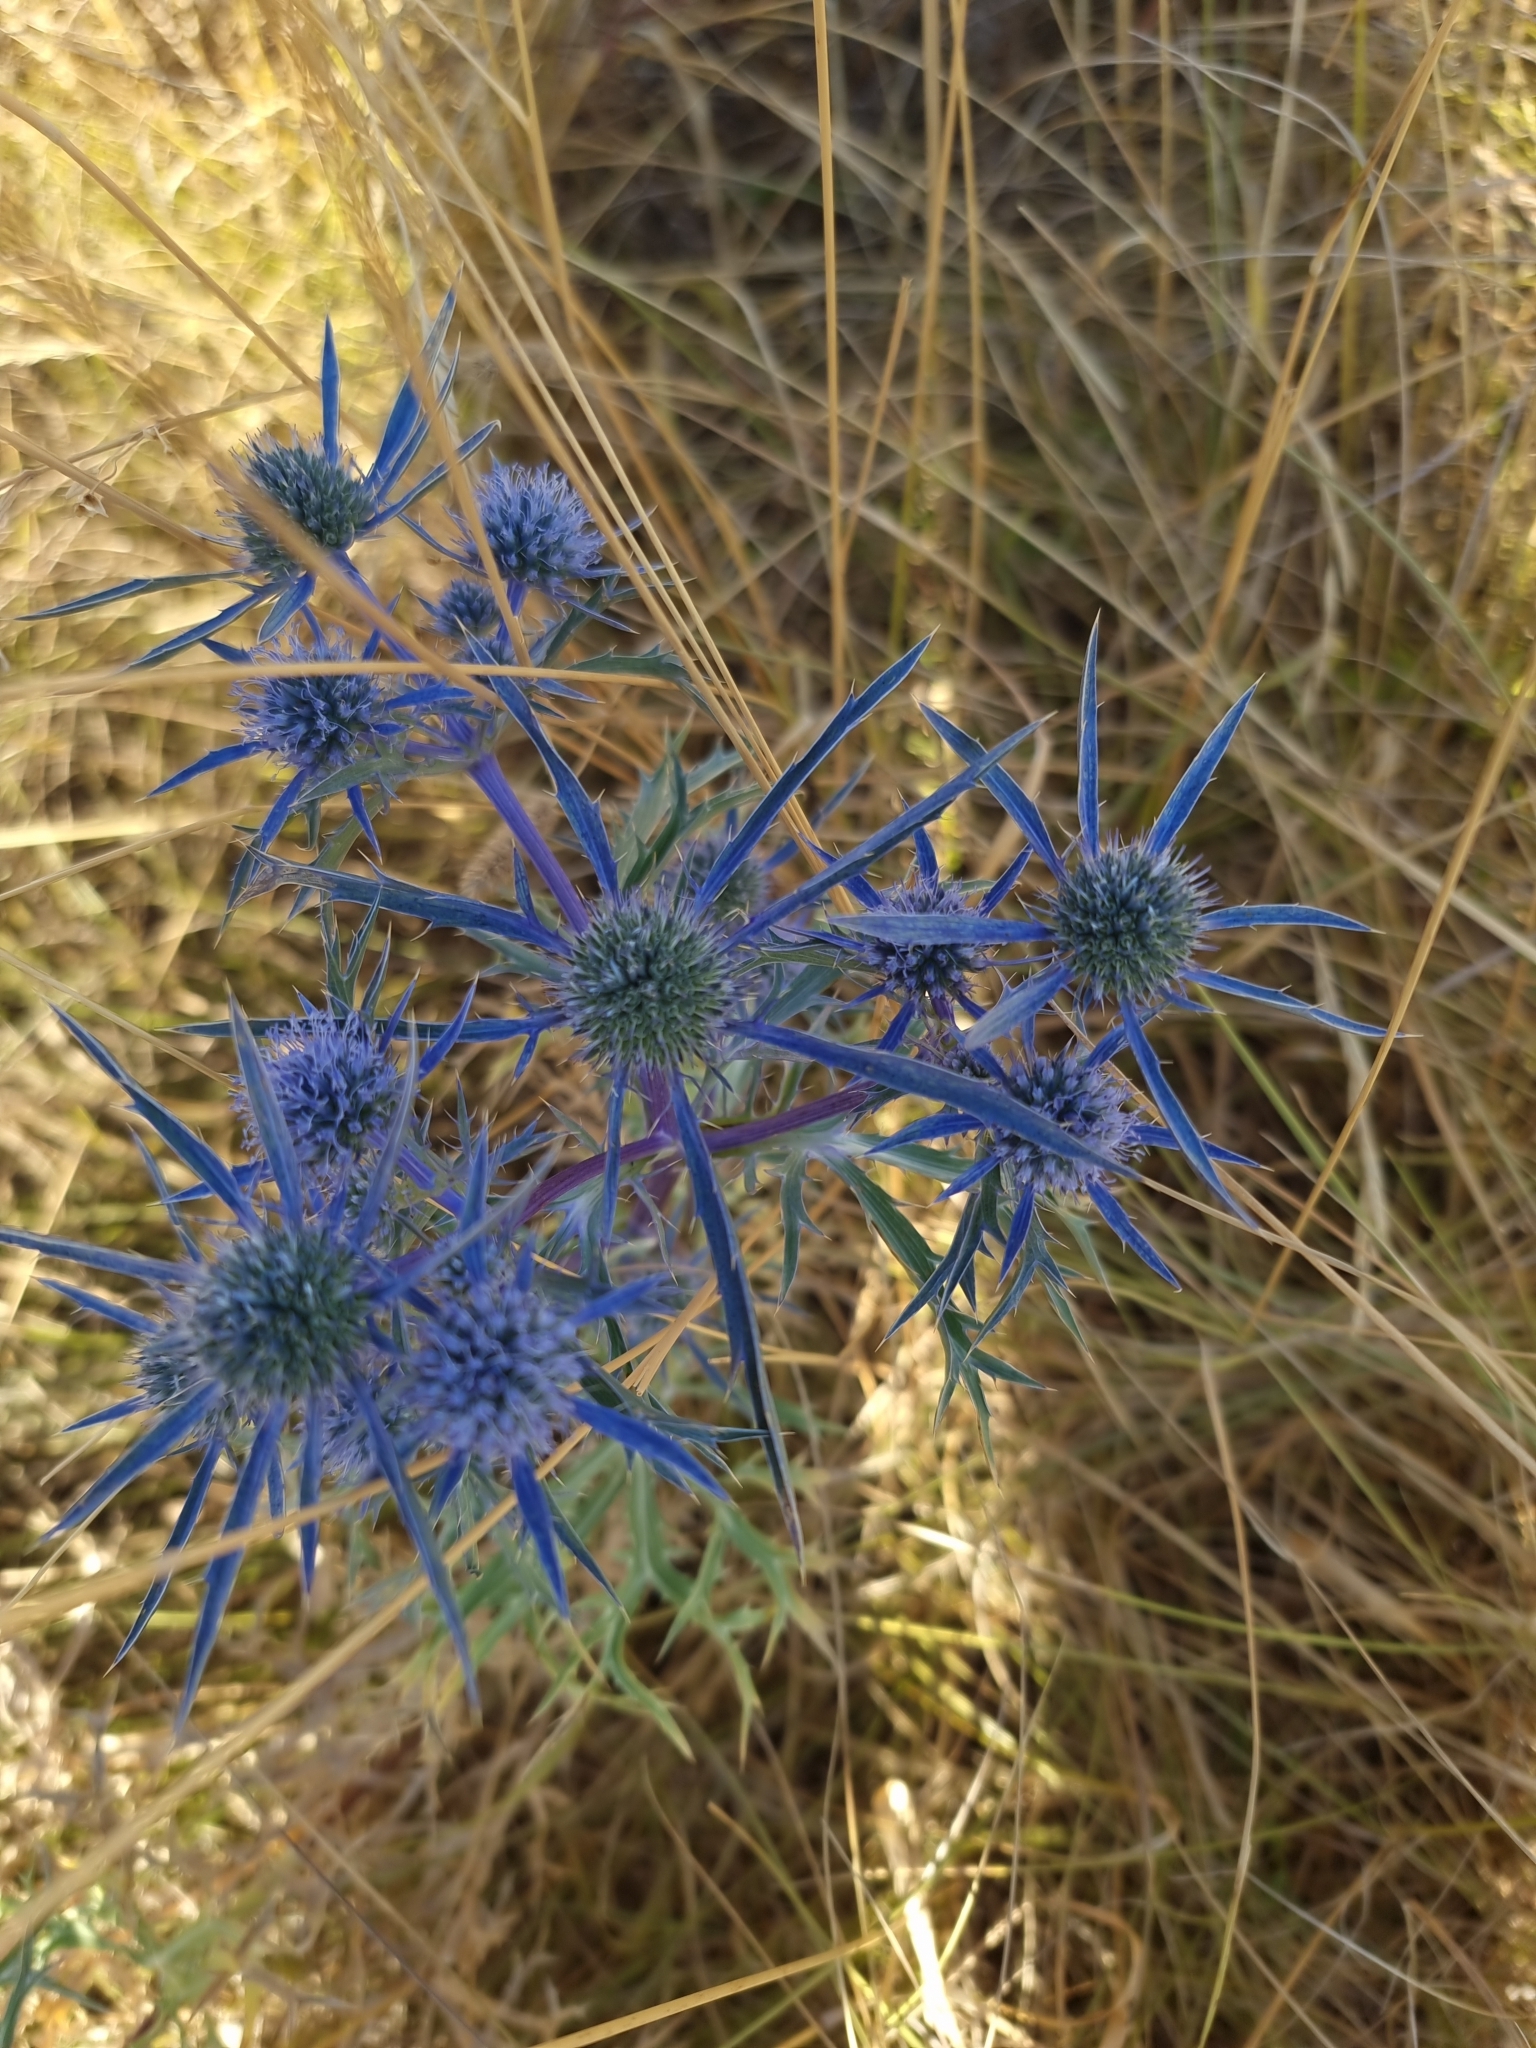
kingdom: Plantae
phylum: Tracheophyta
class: Magnoliopsida
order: Apiales
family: Apiaceae
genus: Eryngium
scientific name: Eryngium amethystinum
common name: Amethyst eryngo
